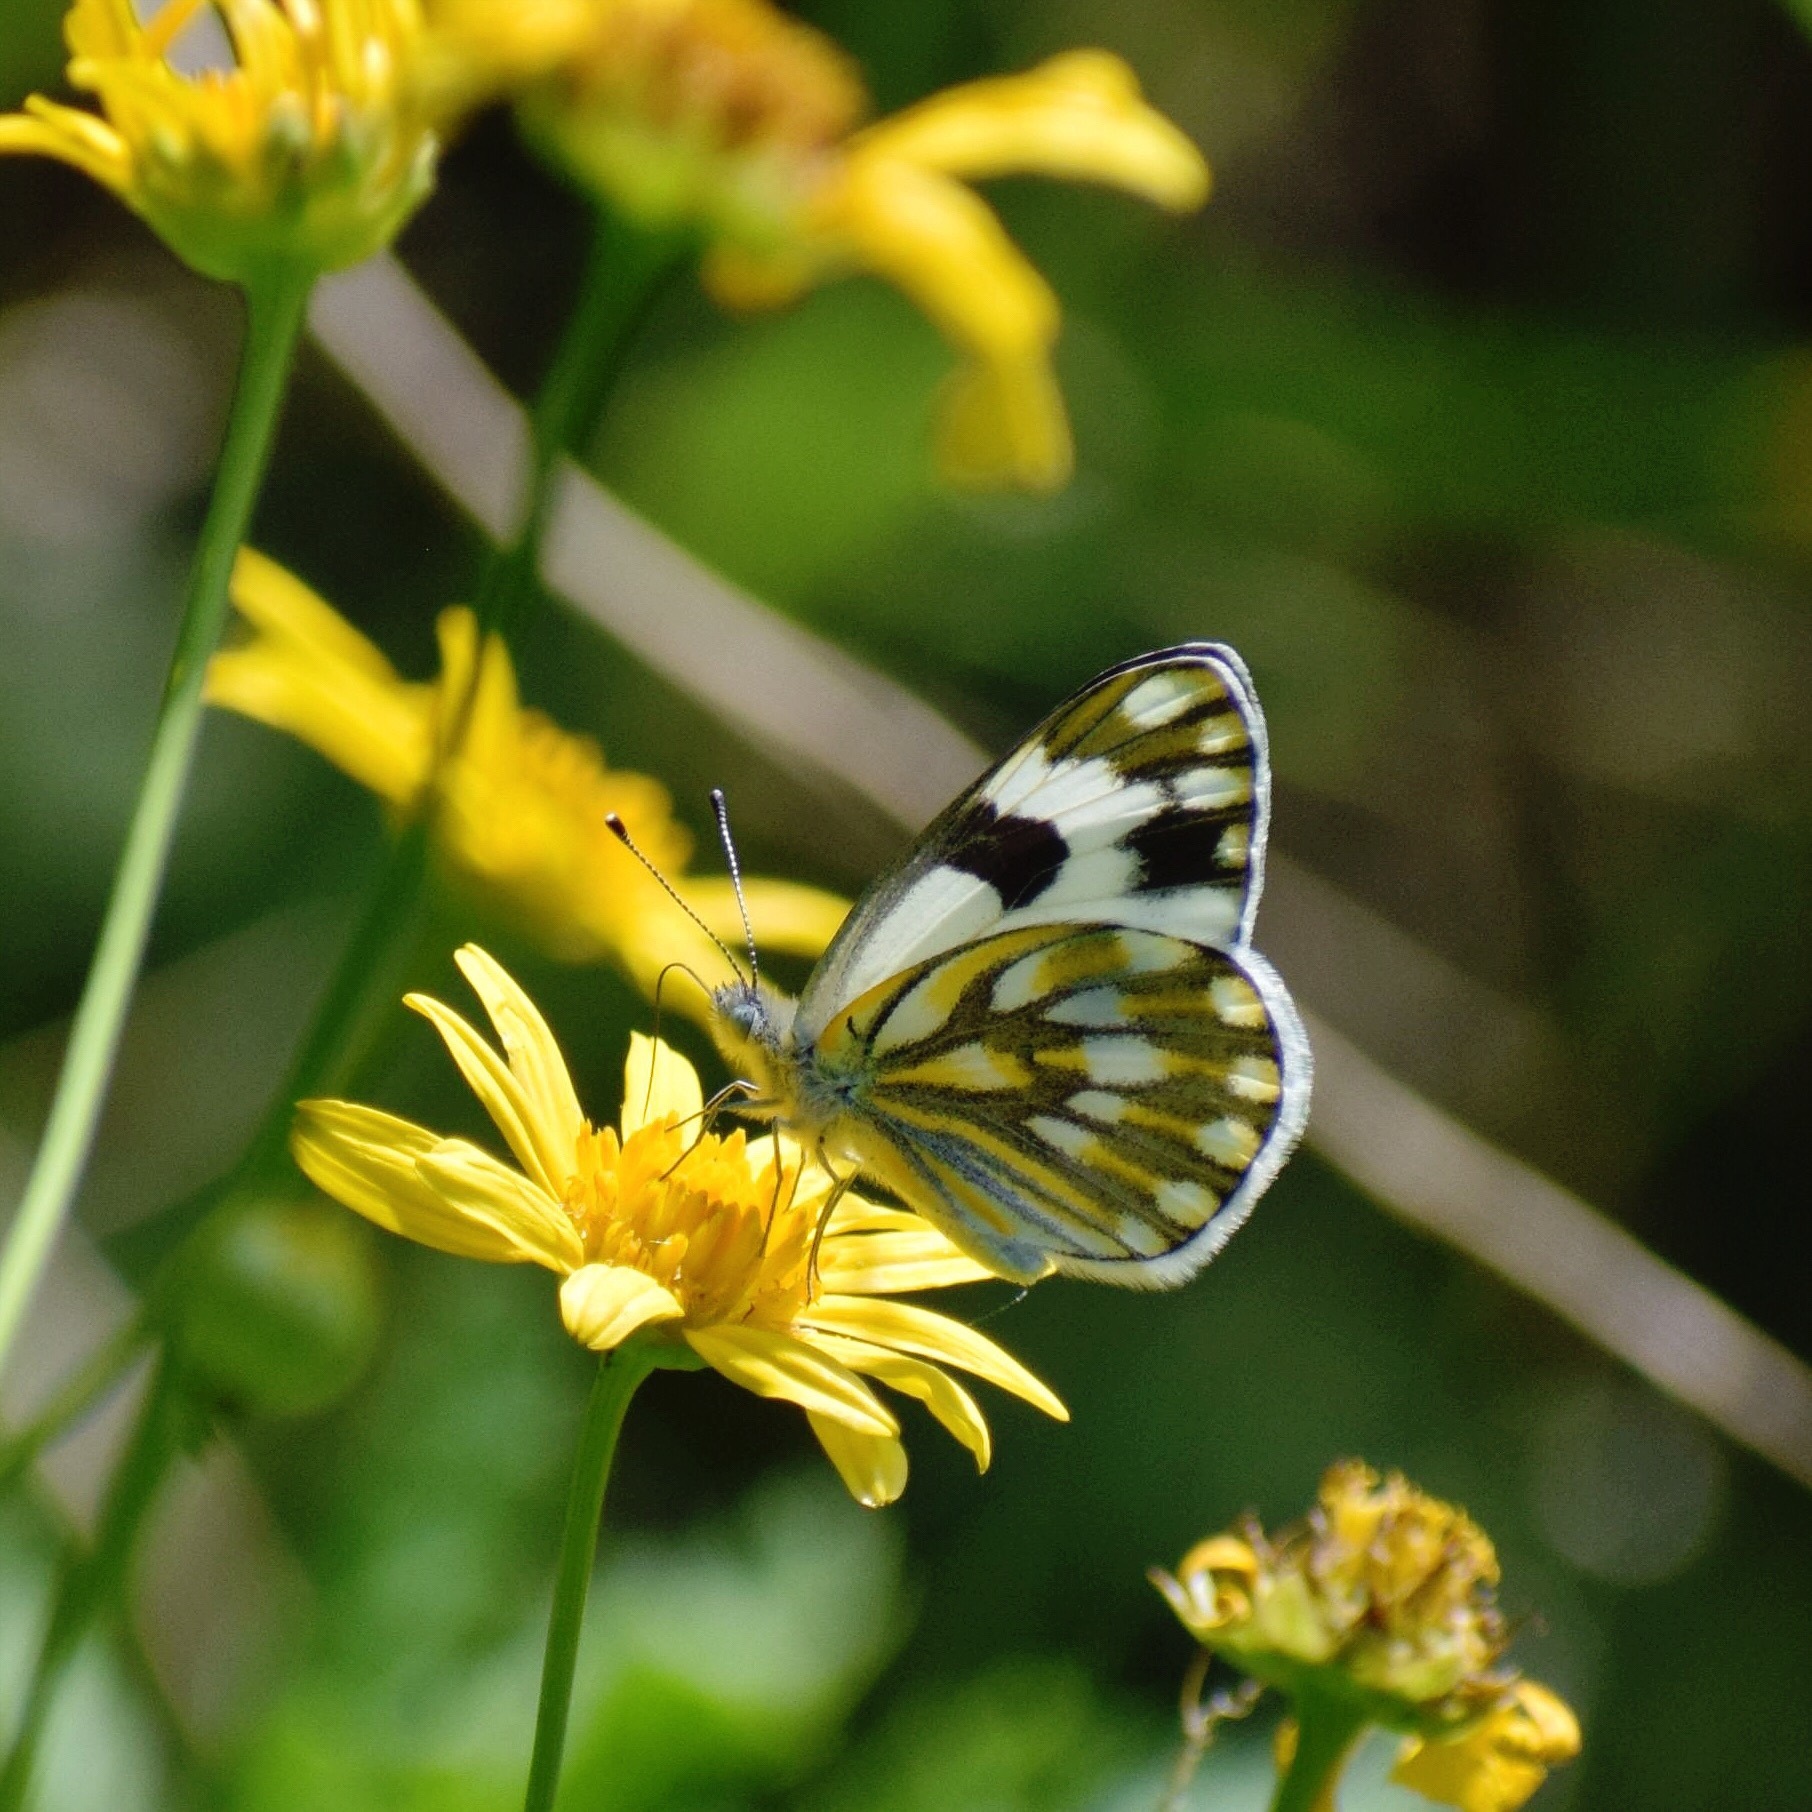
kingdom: Animalia
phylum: Arthropoda
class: Insecta
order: Lepidoptera
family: Pieridae
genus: Pontia
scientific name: Pontia helice
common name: Meadow white
